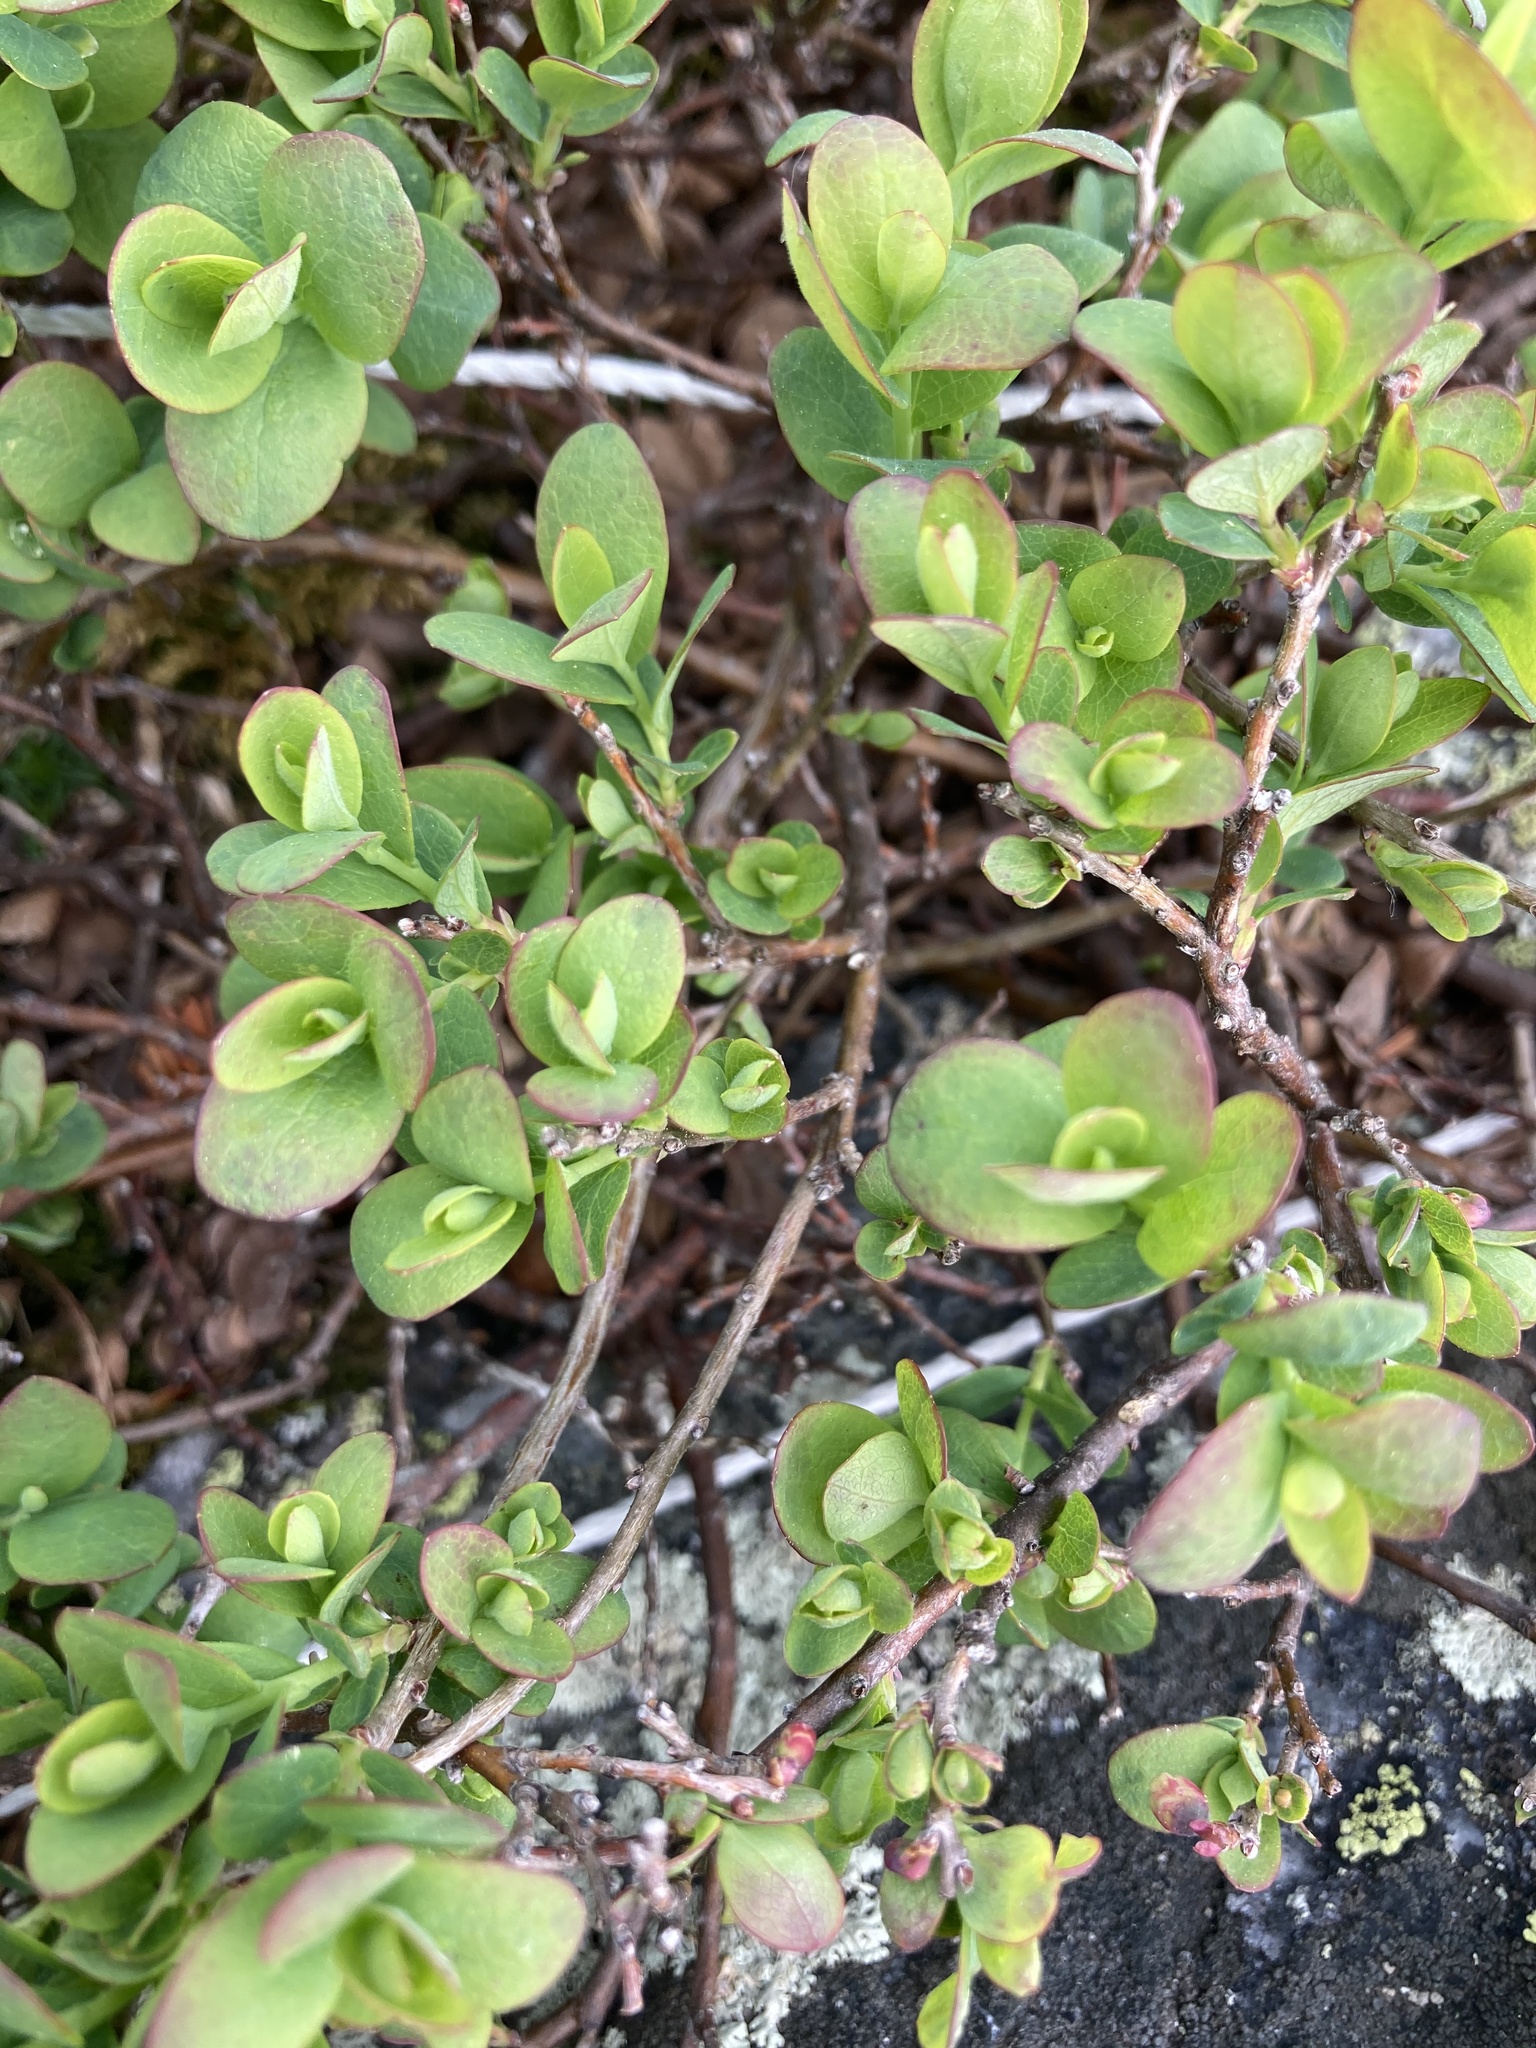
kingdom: Plantae
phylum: Tracheophyta
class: Magnoliopsida
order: Ericales
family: Ericaceae
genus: Vaccinium
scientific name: Vaccinium uliginosum
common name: Bog bilberry
